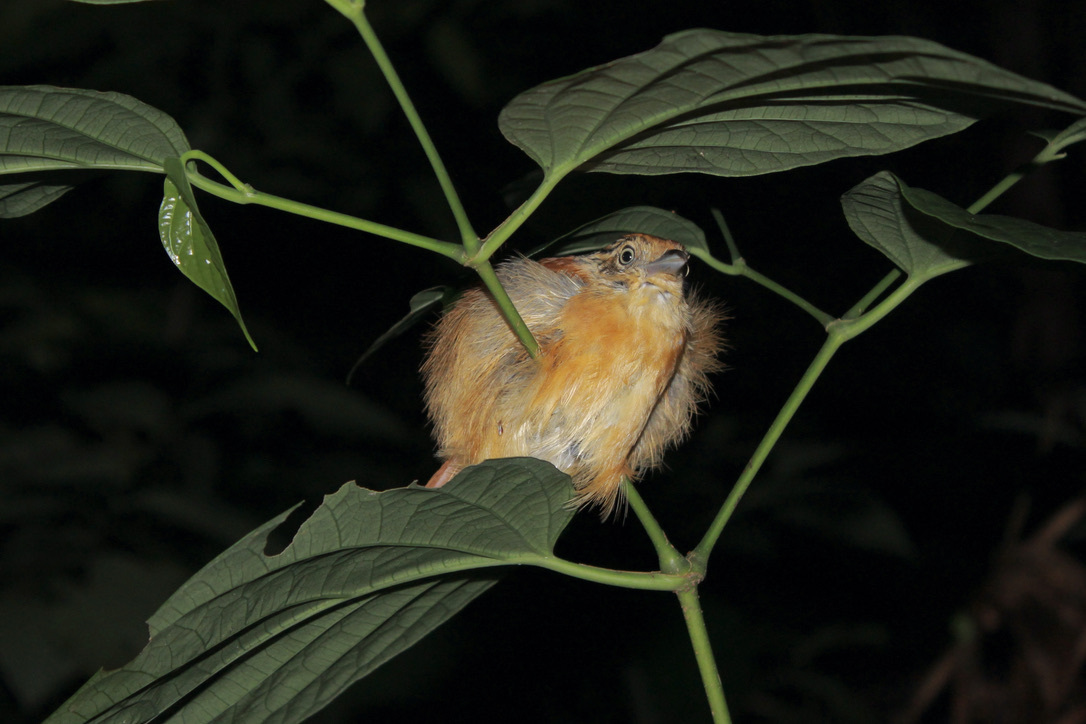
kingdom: Animalia
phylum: Chordata
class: Aves
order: Passeriformes
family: Thamnophilidae
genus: Thamnophilus
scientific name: Thamnophilus doliatus
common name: Barred antshrike
